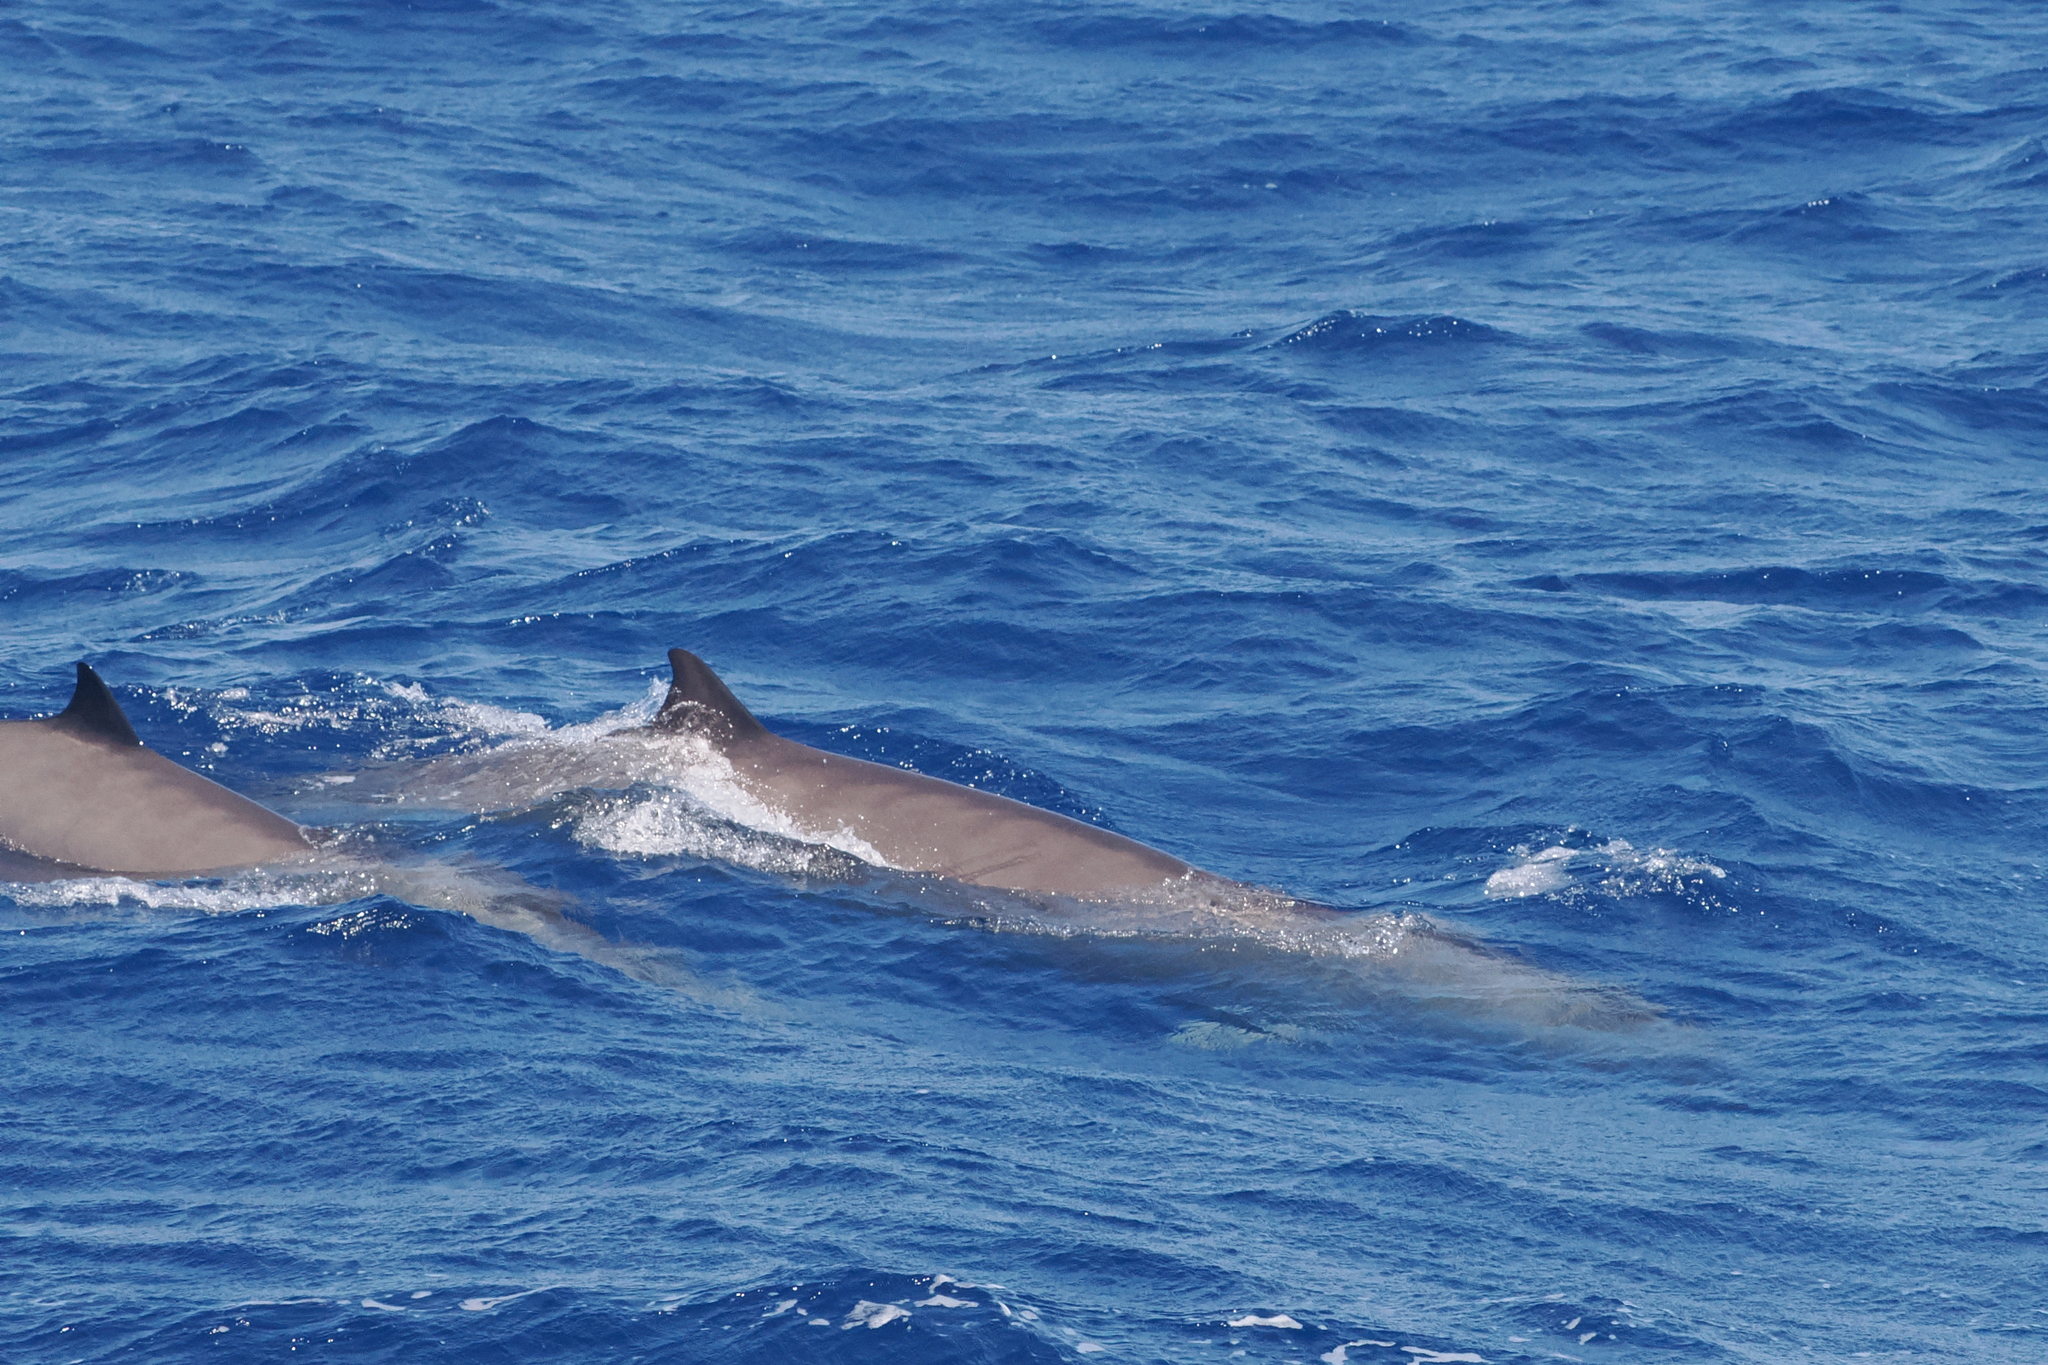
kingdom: Animalia
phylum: Chordata
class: Mammalia
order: Cetacea
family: Hyperoodontidae
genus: Mesoplodon
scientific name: Mesoplodon europaeus
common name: Gervais' beaked whale
